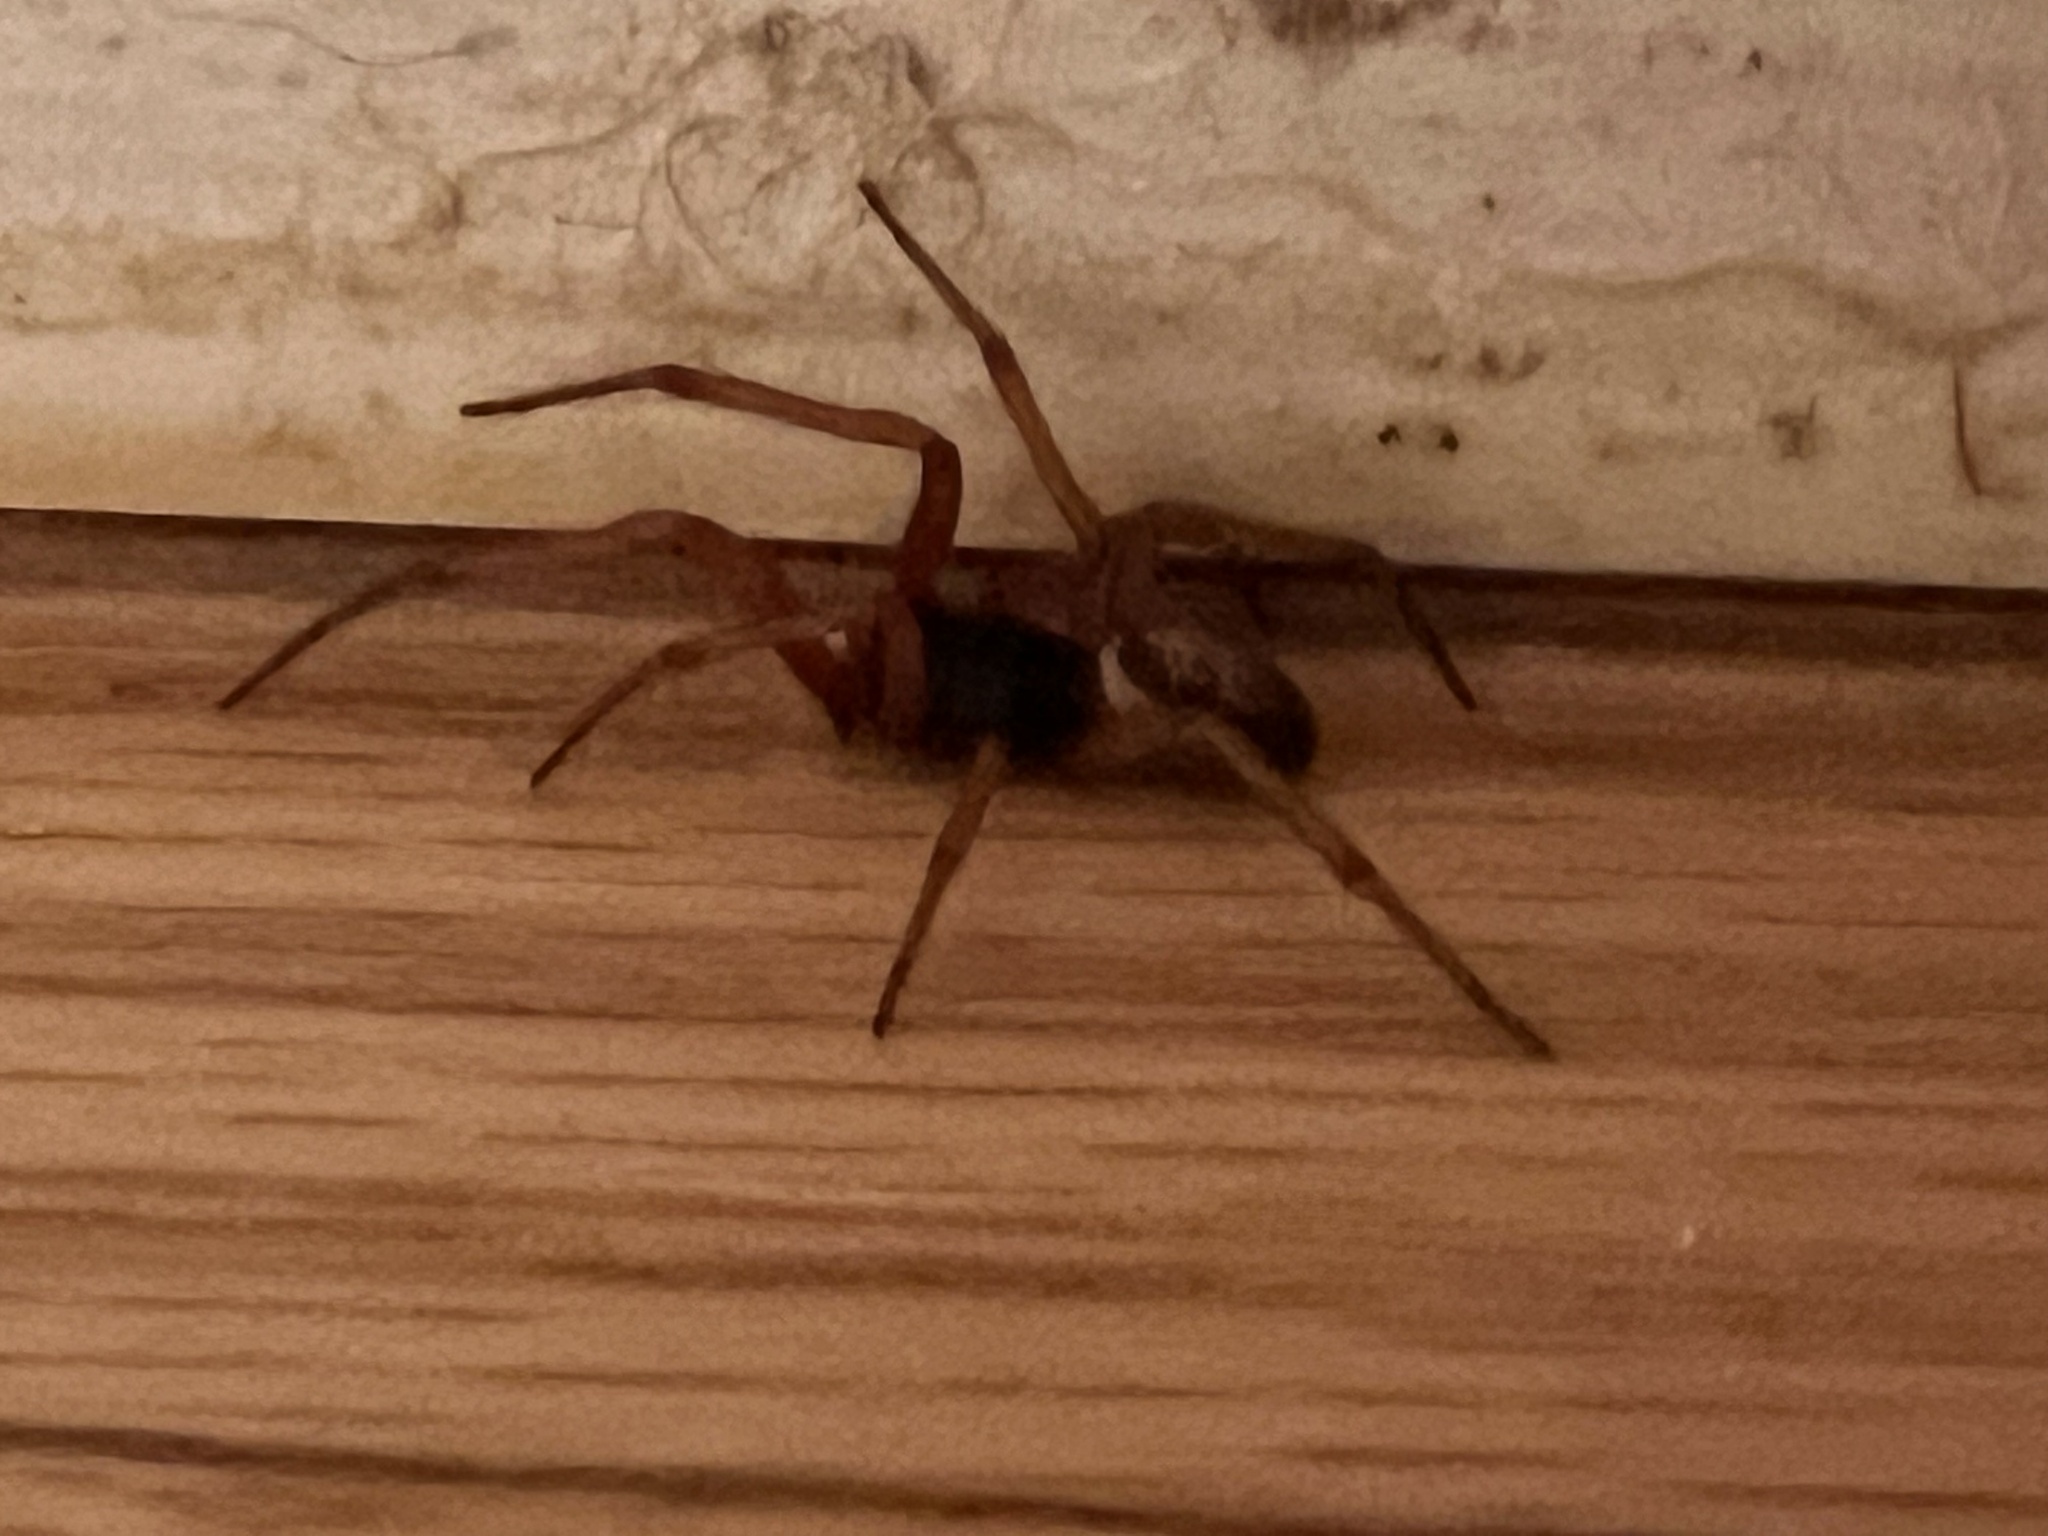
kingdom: Animalia
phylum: Arthropoda
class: Arachnida
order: Araneae
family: Theridiidae
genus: Steatoda
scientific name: Steatoda nobilis
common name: Cobweb weaver
